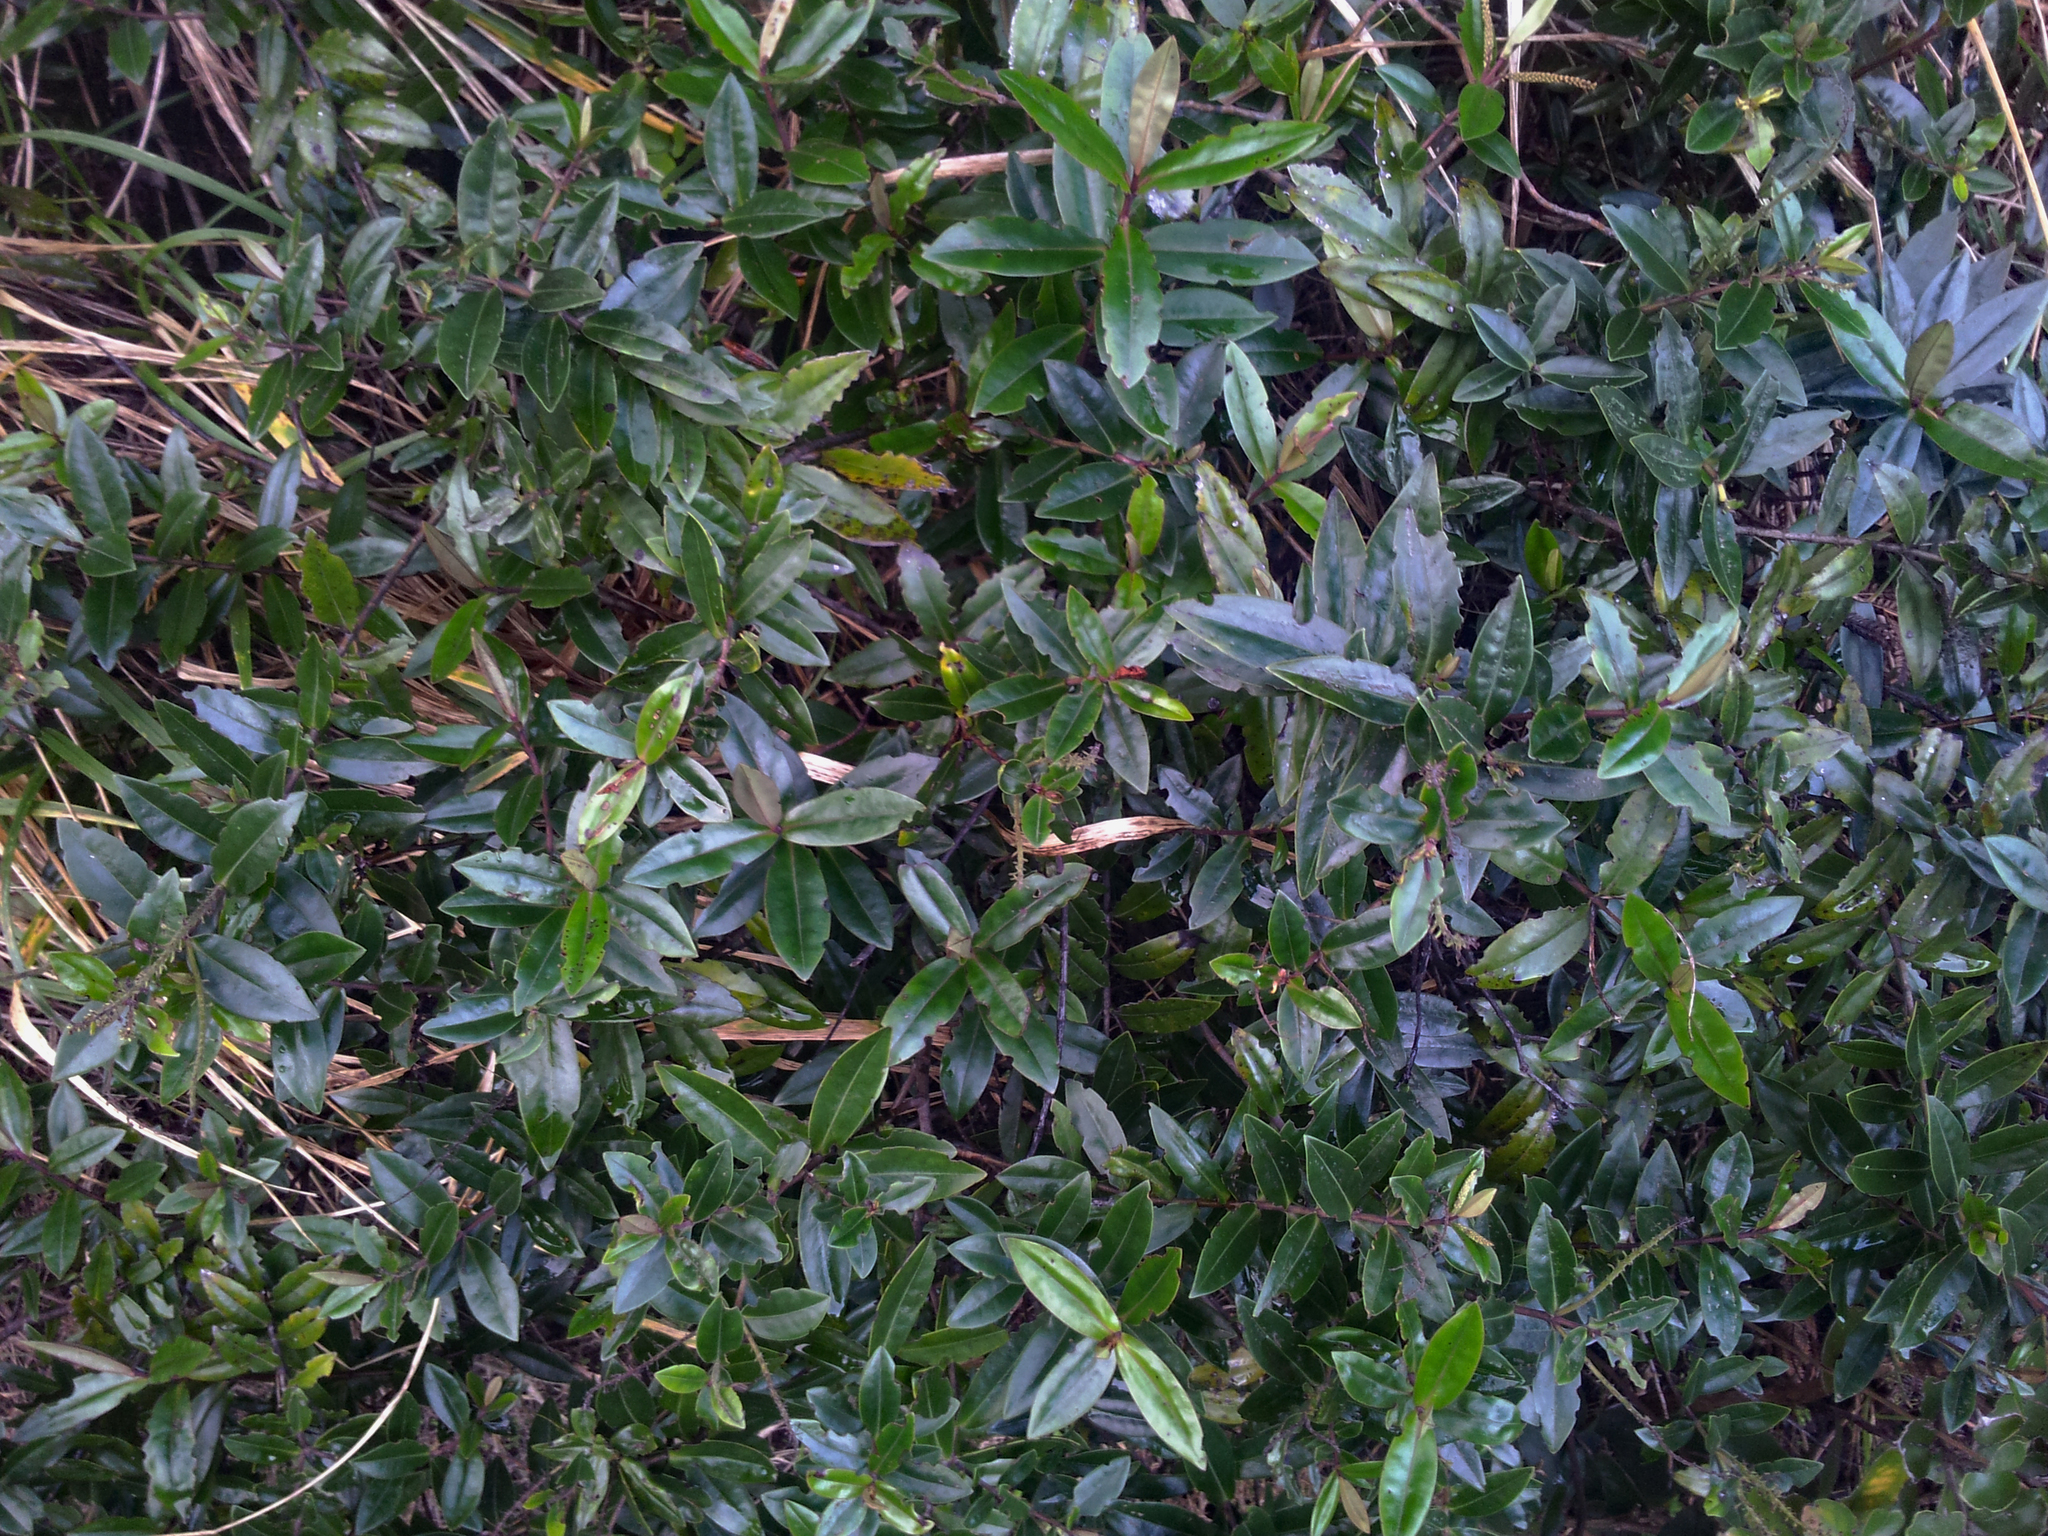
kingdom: Plantae
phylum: Tracheophyta
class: Magnoliopsida
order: Lamiales
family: Plantaginaceae
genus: Veronica
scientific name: Veronica bishopiana
